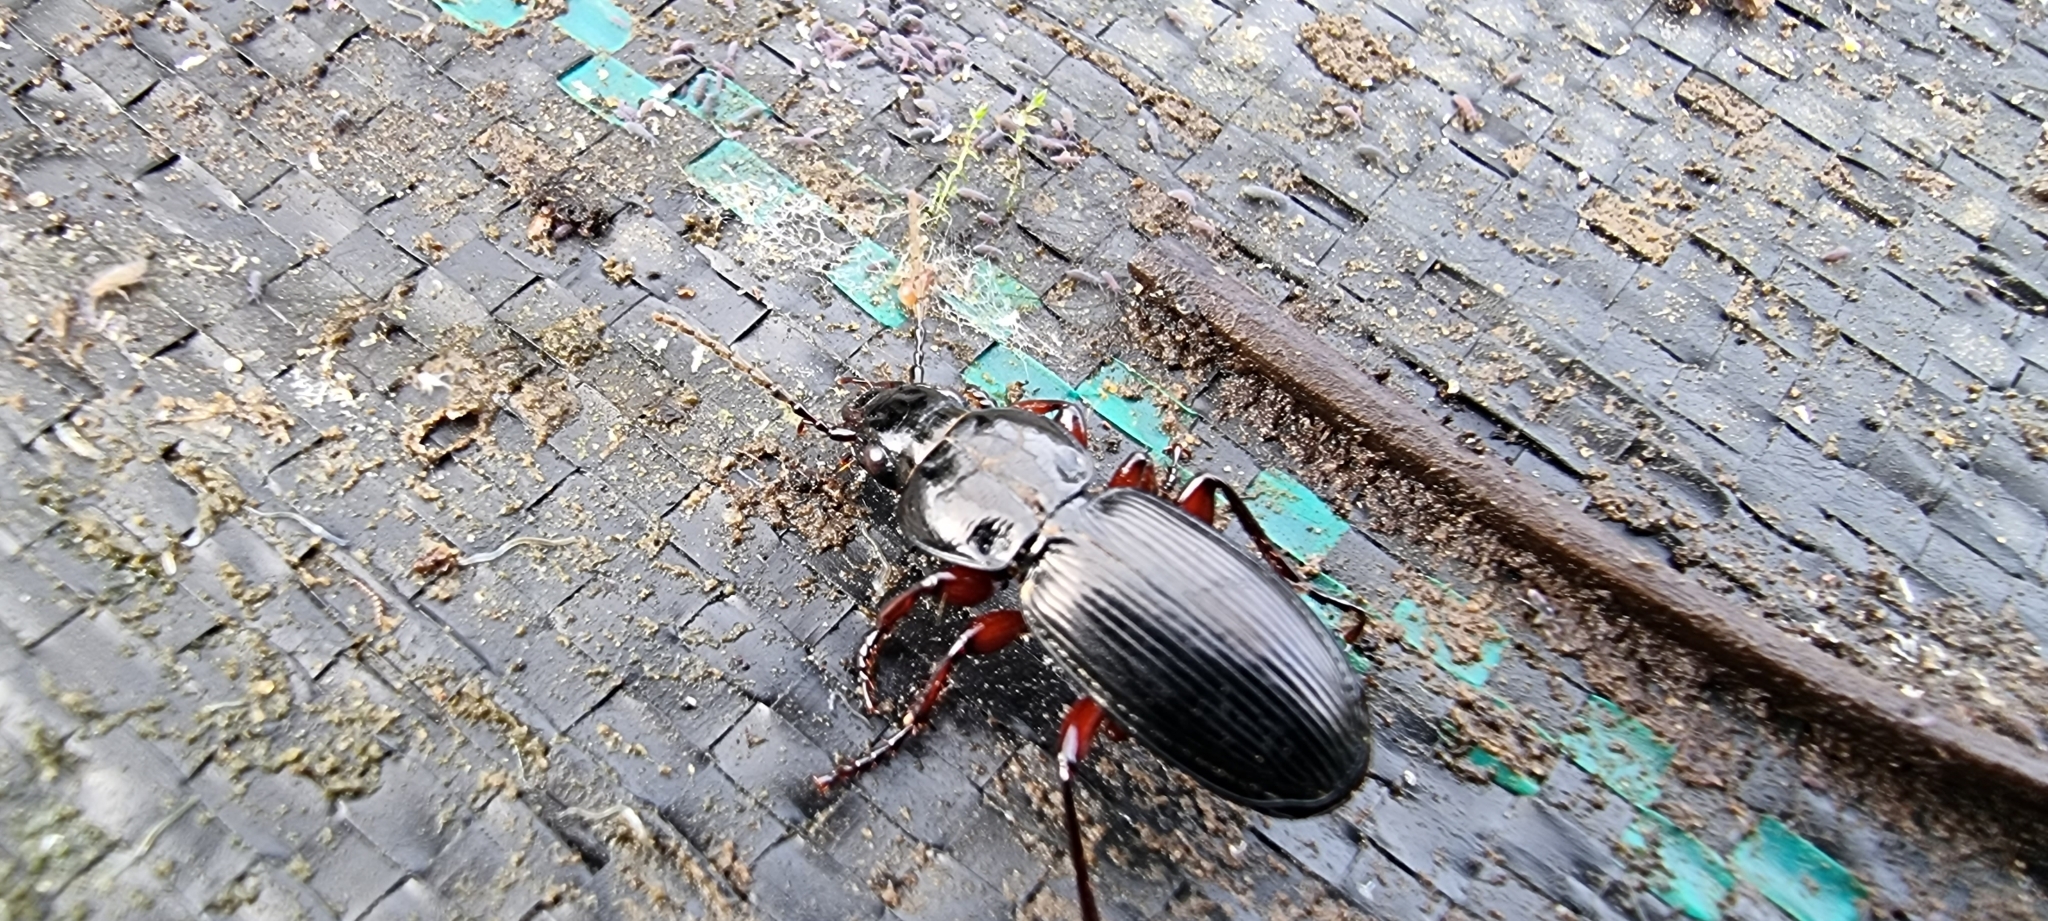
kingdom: Animalia
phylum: Arthropoda
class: Insecta
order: Coleoptera
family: Carabidae
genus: Pterostichus
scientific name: Pterostichus madidus
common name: Black clock
